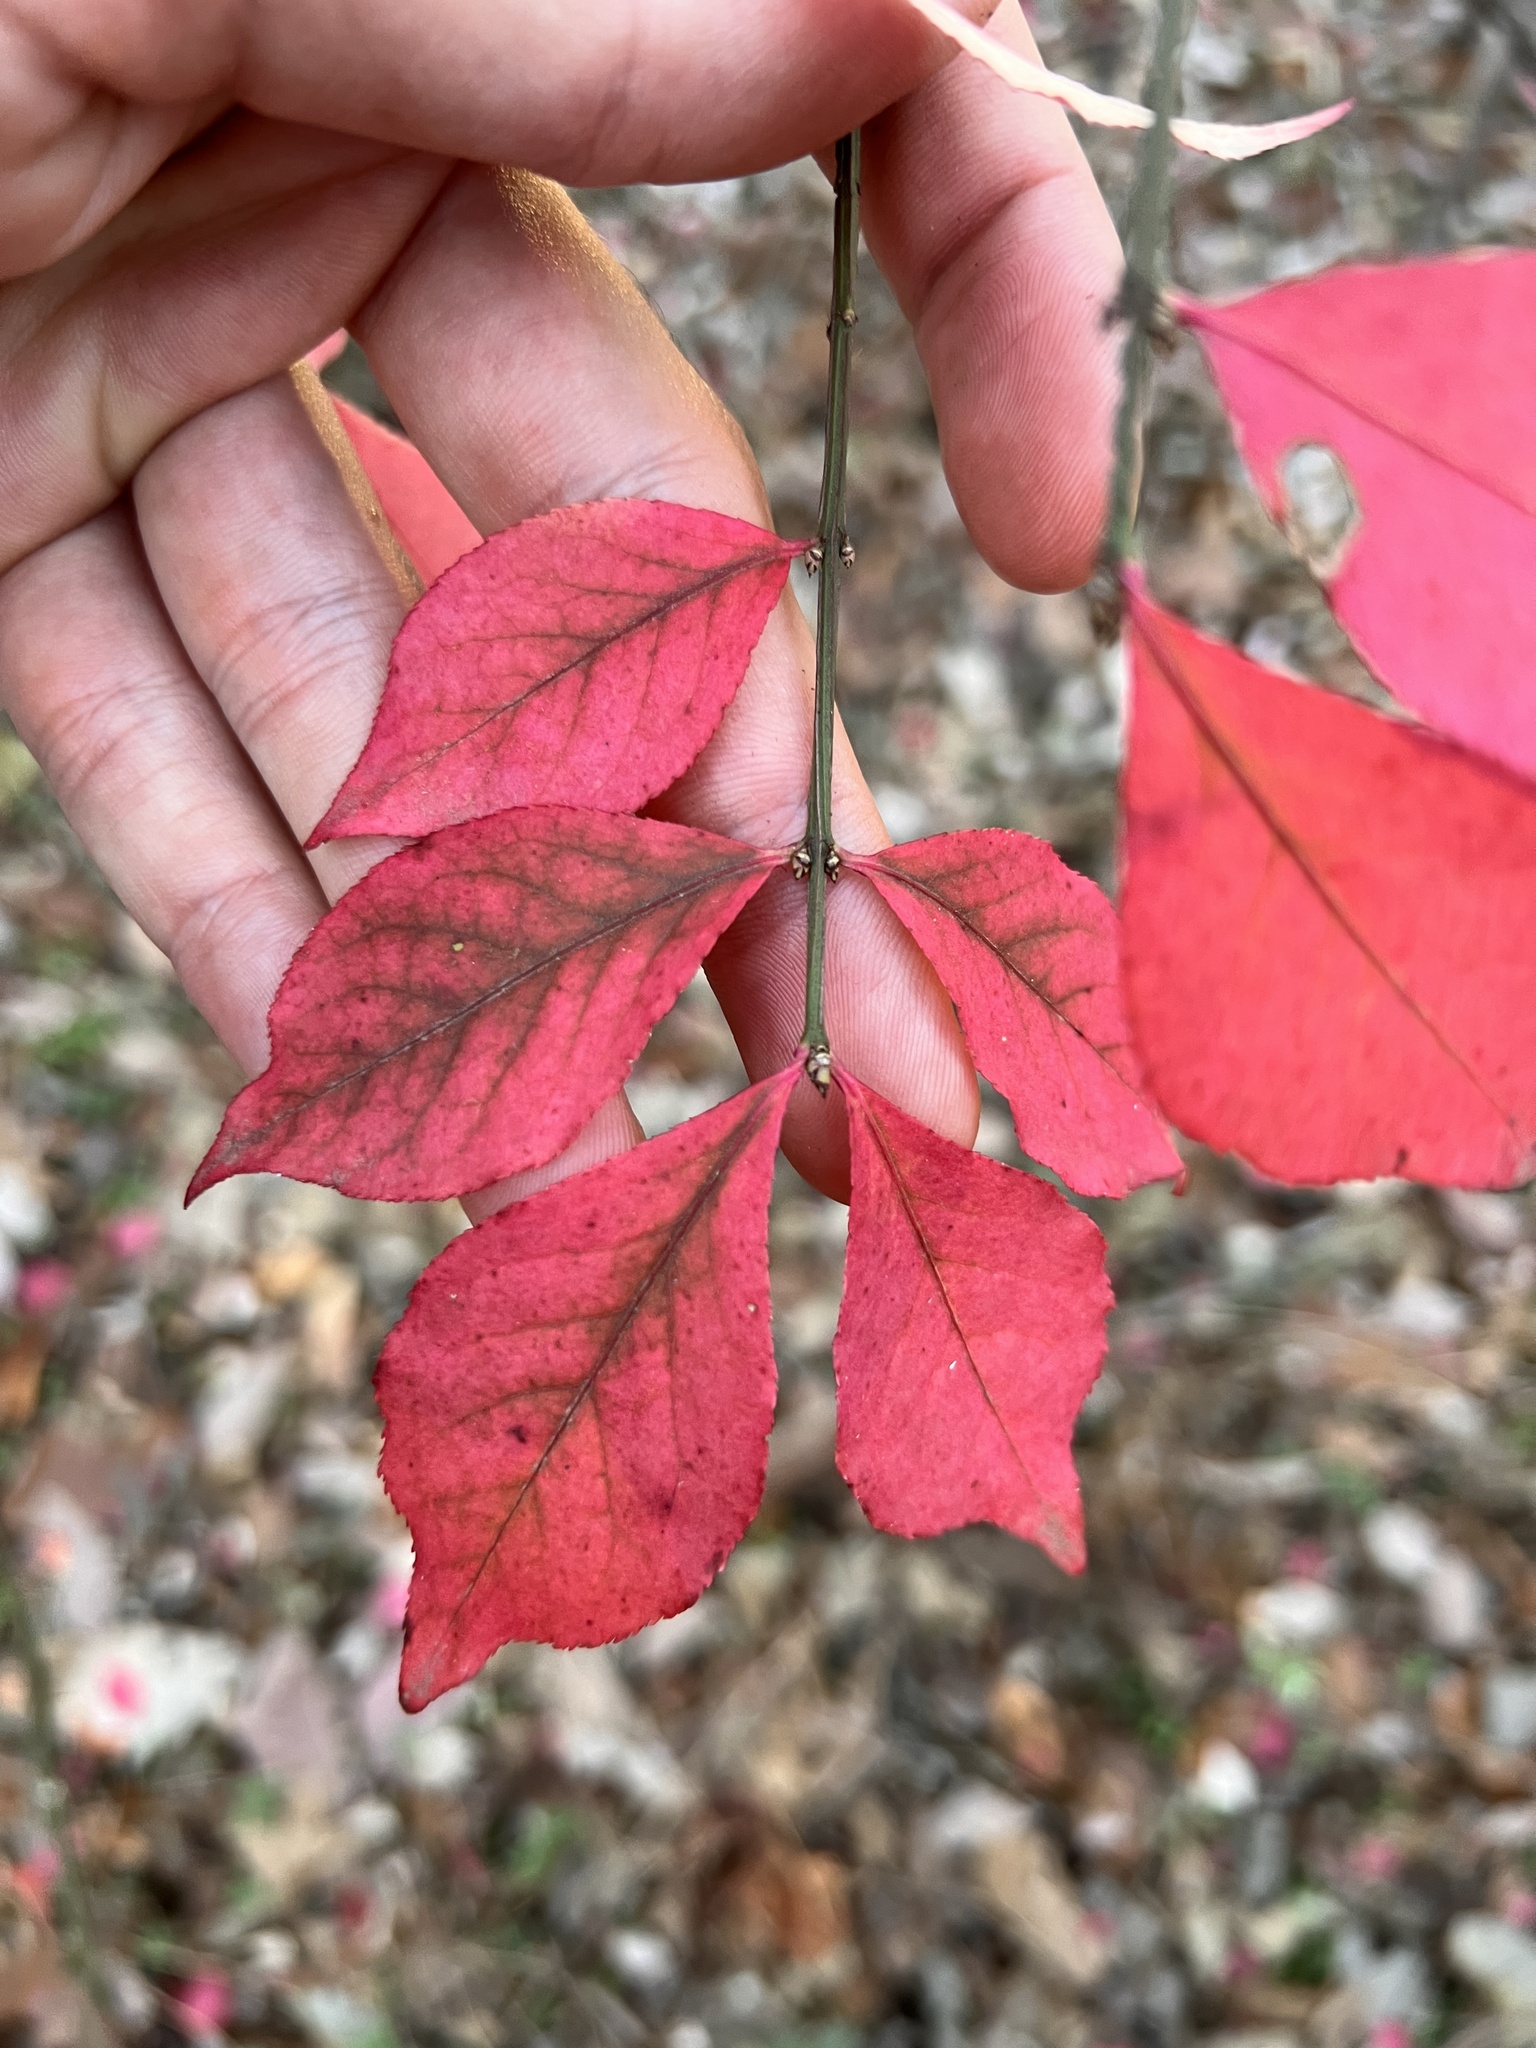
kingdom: Plantae
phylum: Tracheophyta
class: Magnoliopsida
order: Celastrales
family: Celastraceae
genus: Euonymus
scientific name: Euonymus alatus
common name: Winged euonymus
